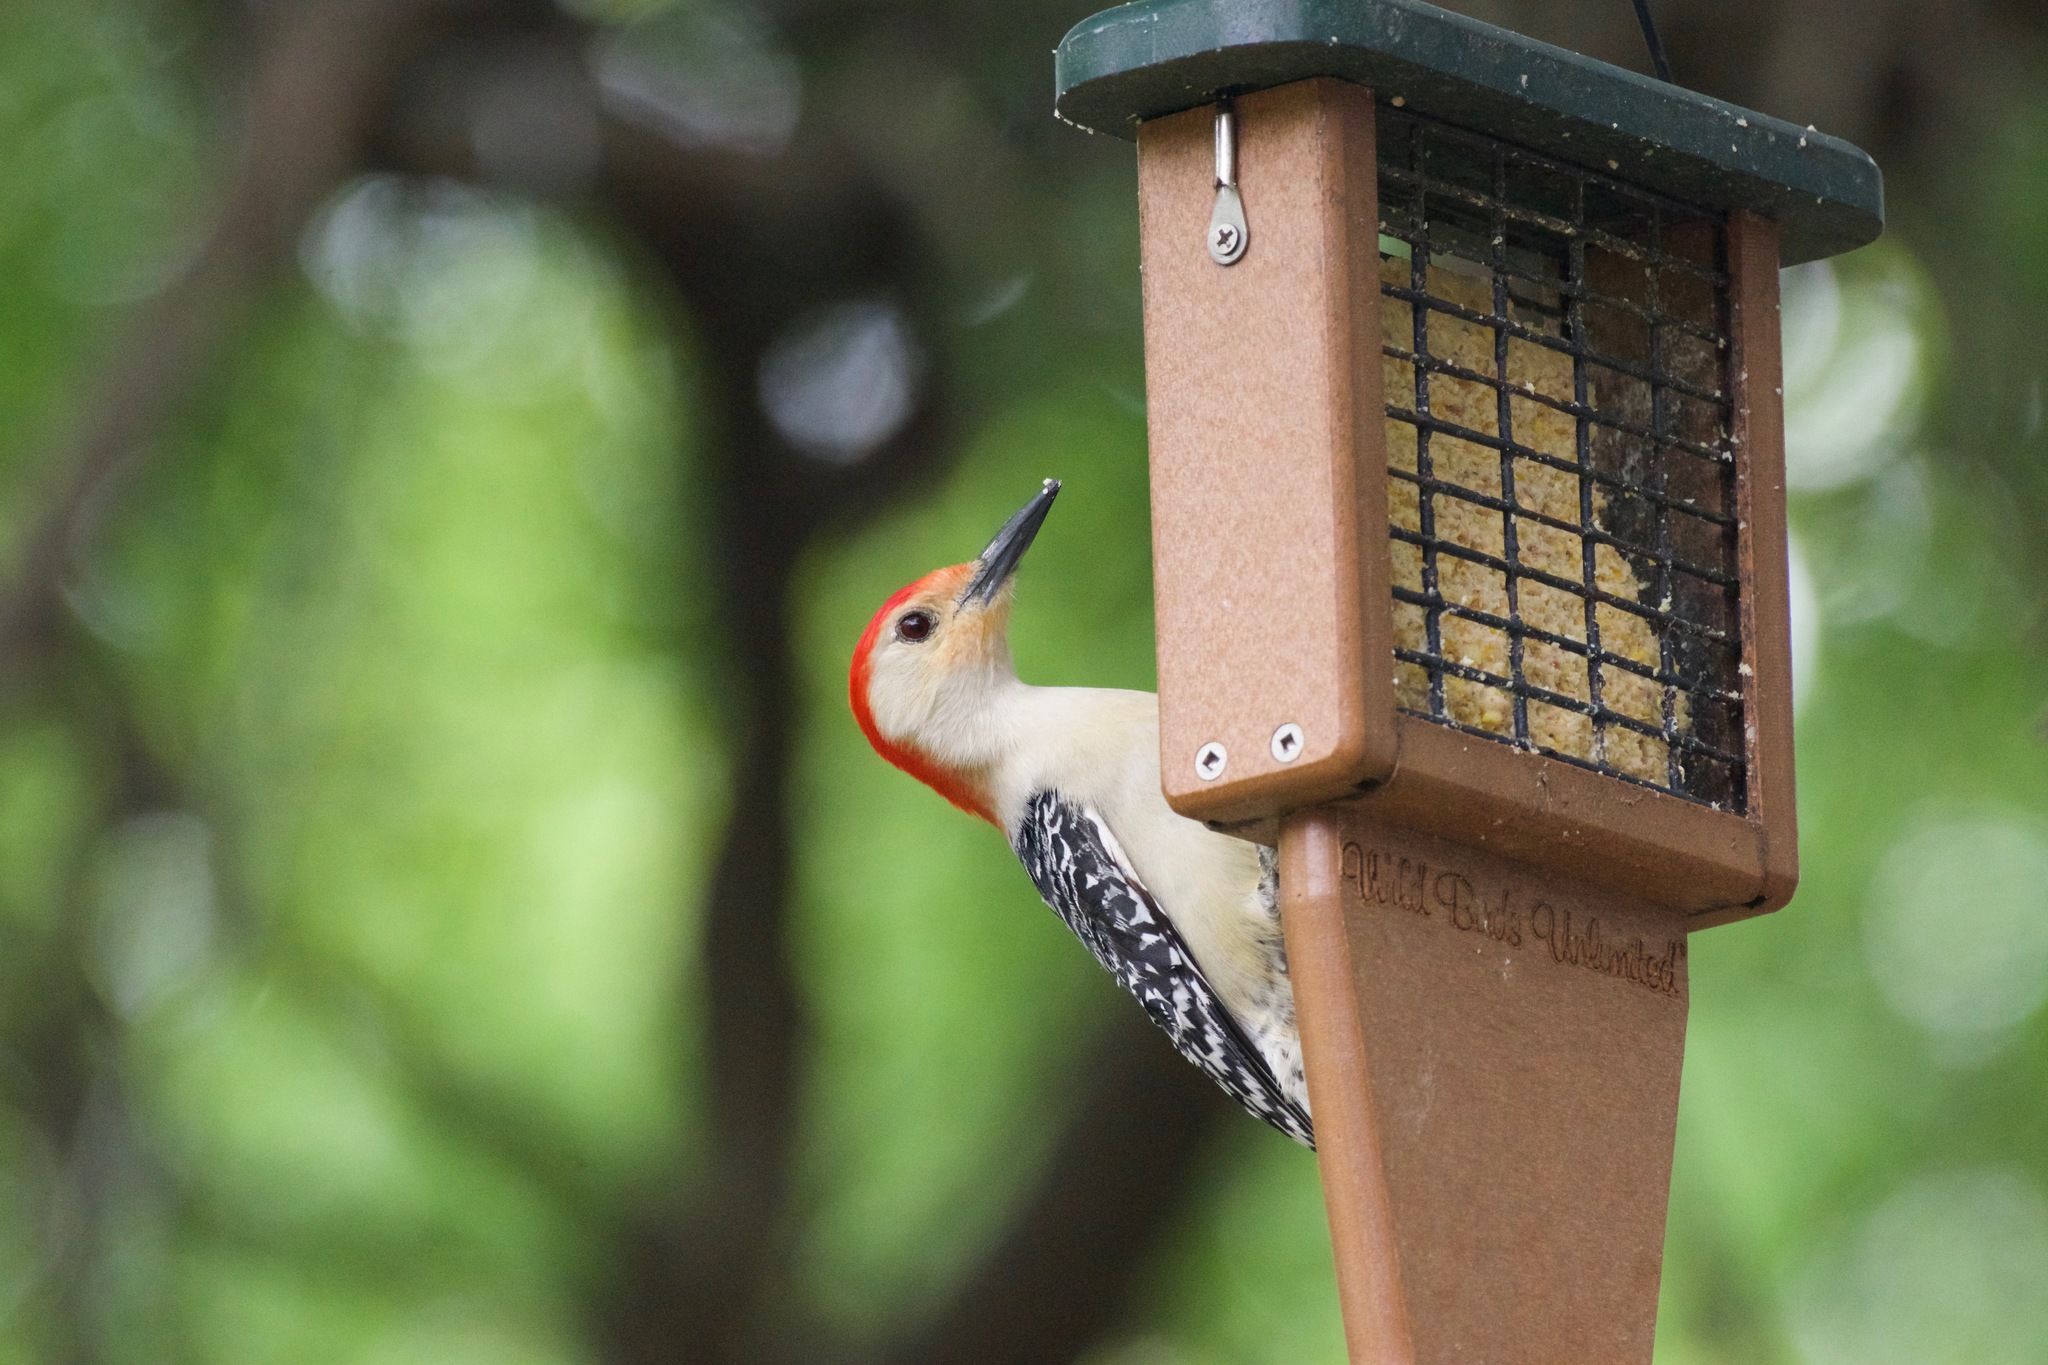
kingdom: Animalia
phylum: Chordata
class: Aves
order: Piciformes
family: Picidae
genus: Melanerpes
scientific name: Melanerpes carolinus
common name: Red-bellied woodpecker
